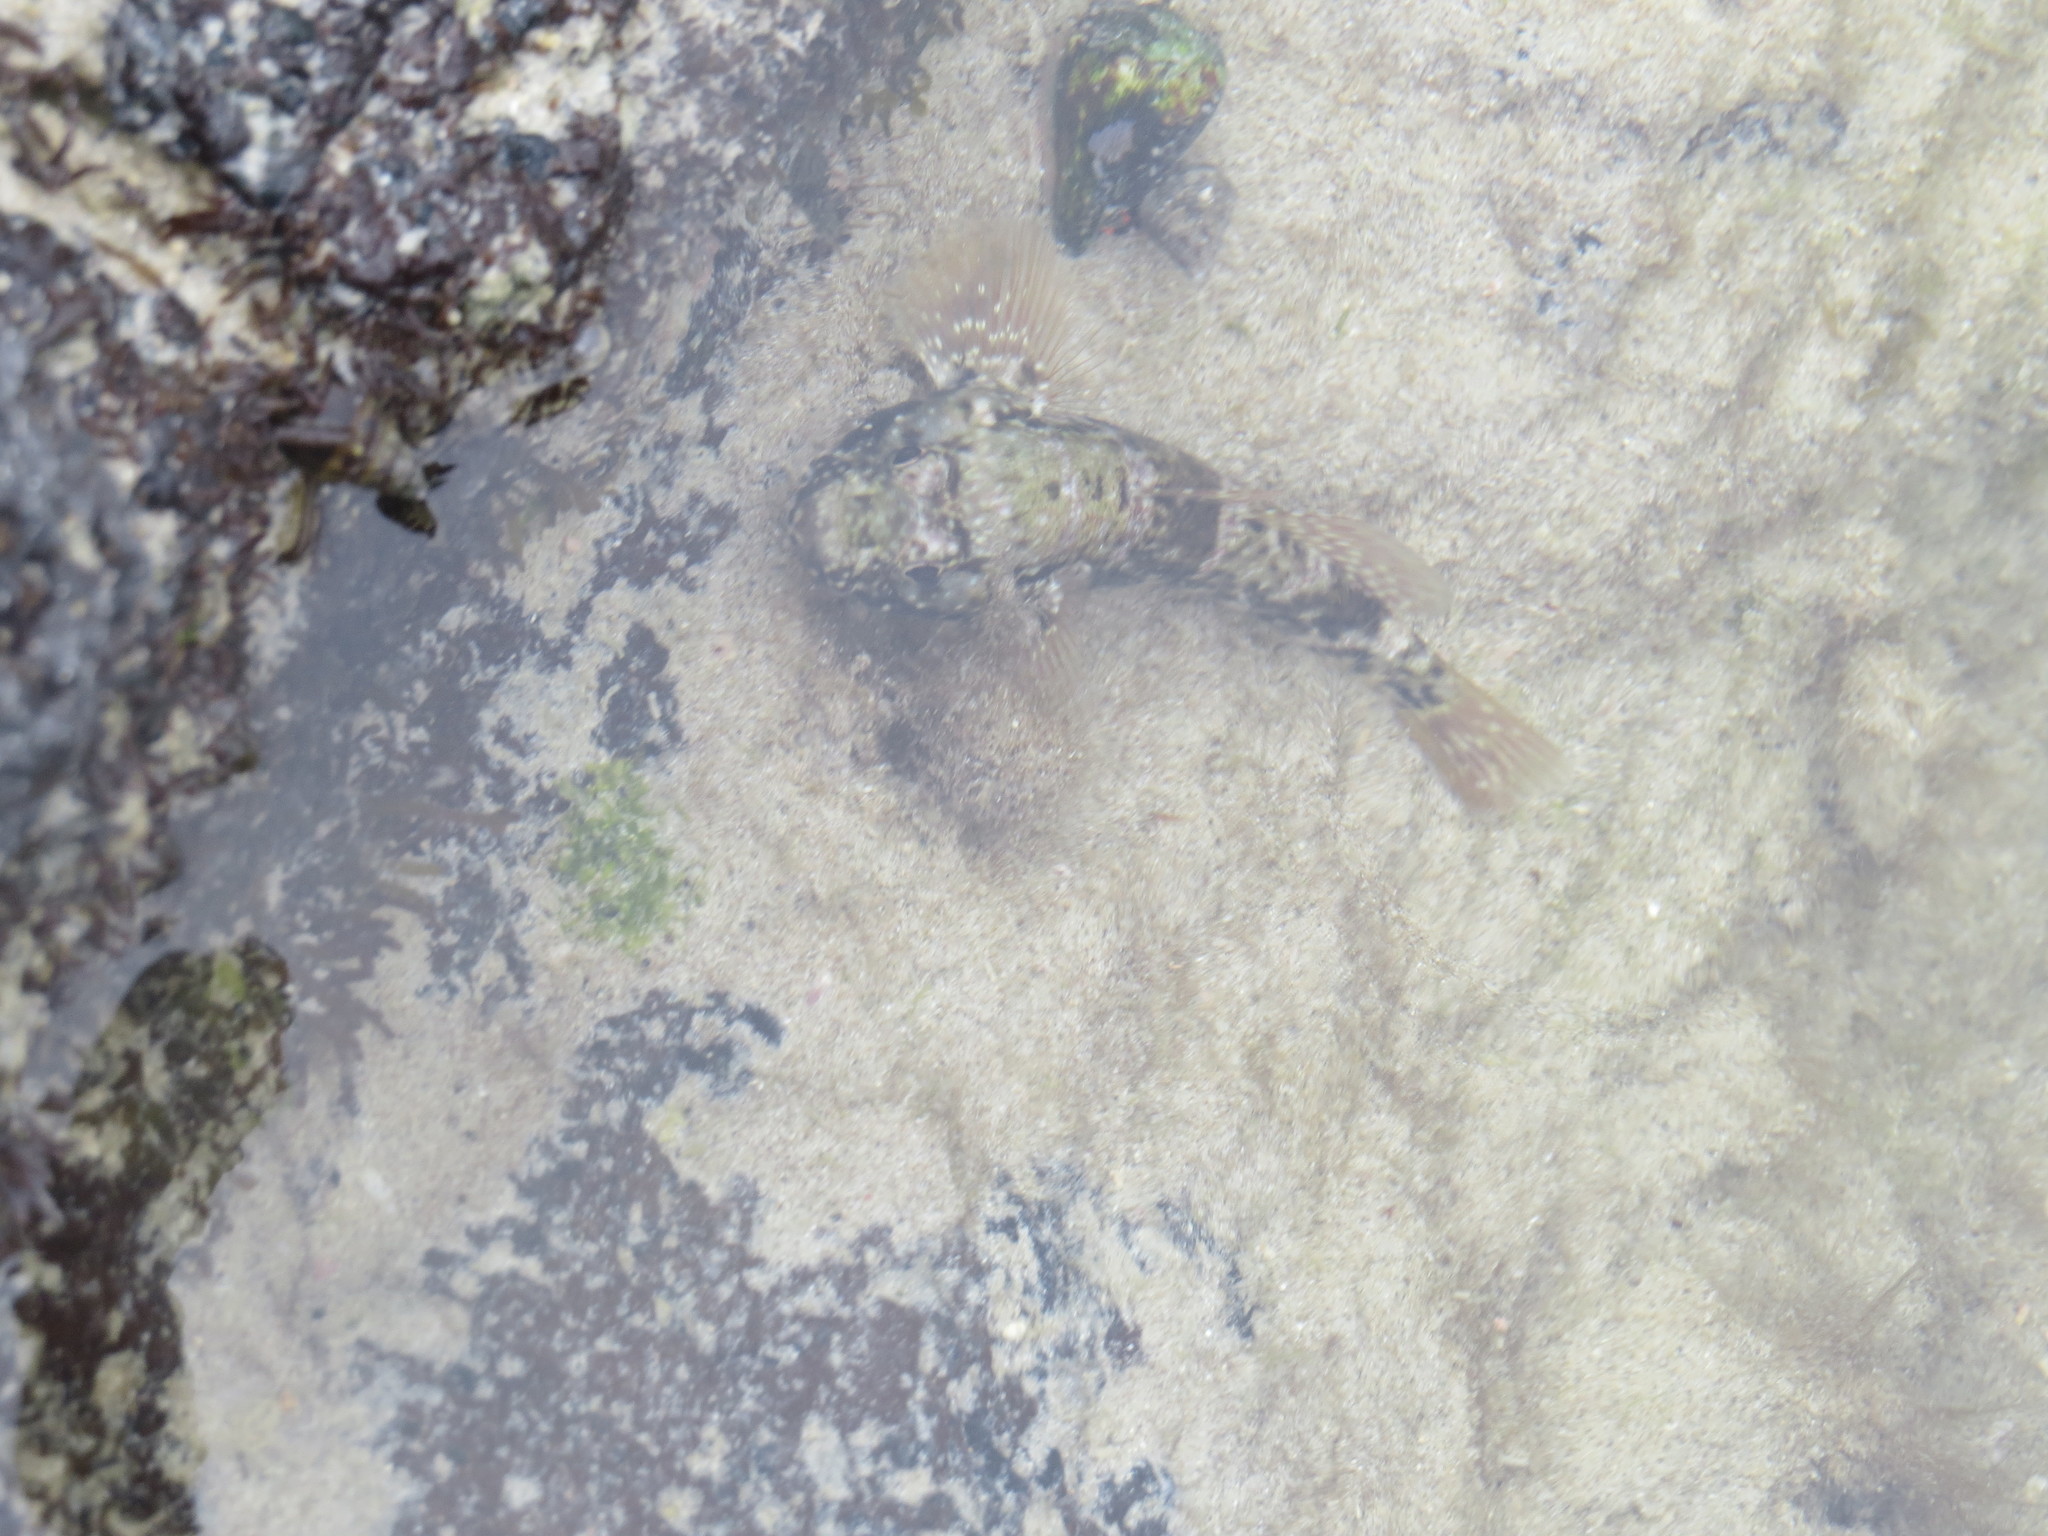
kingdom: Animalia
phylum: Chordata
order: Perciformes
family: Gobiidae
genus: Bathygobius
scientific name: Bathygobius lineatus
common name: Southern frillfin
